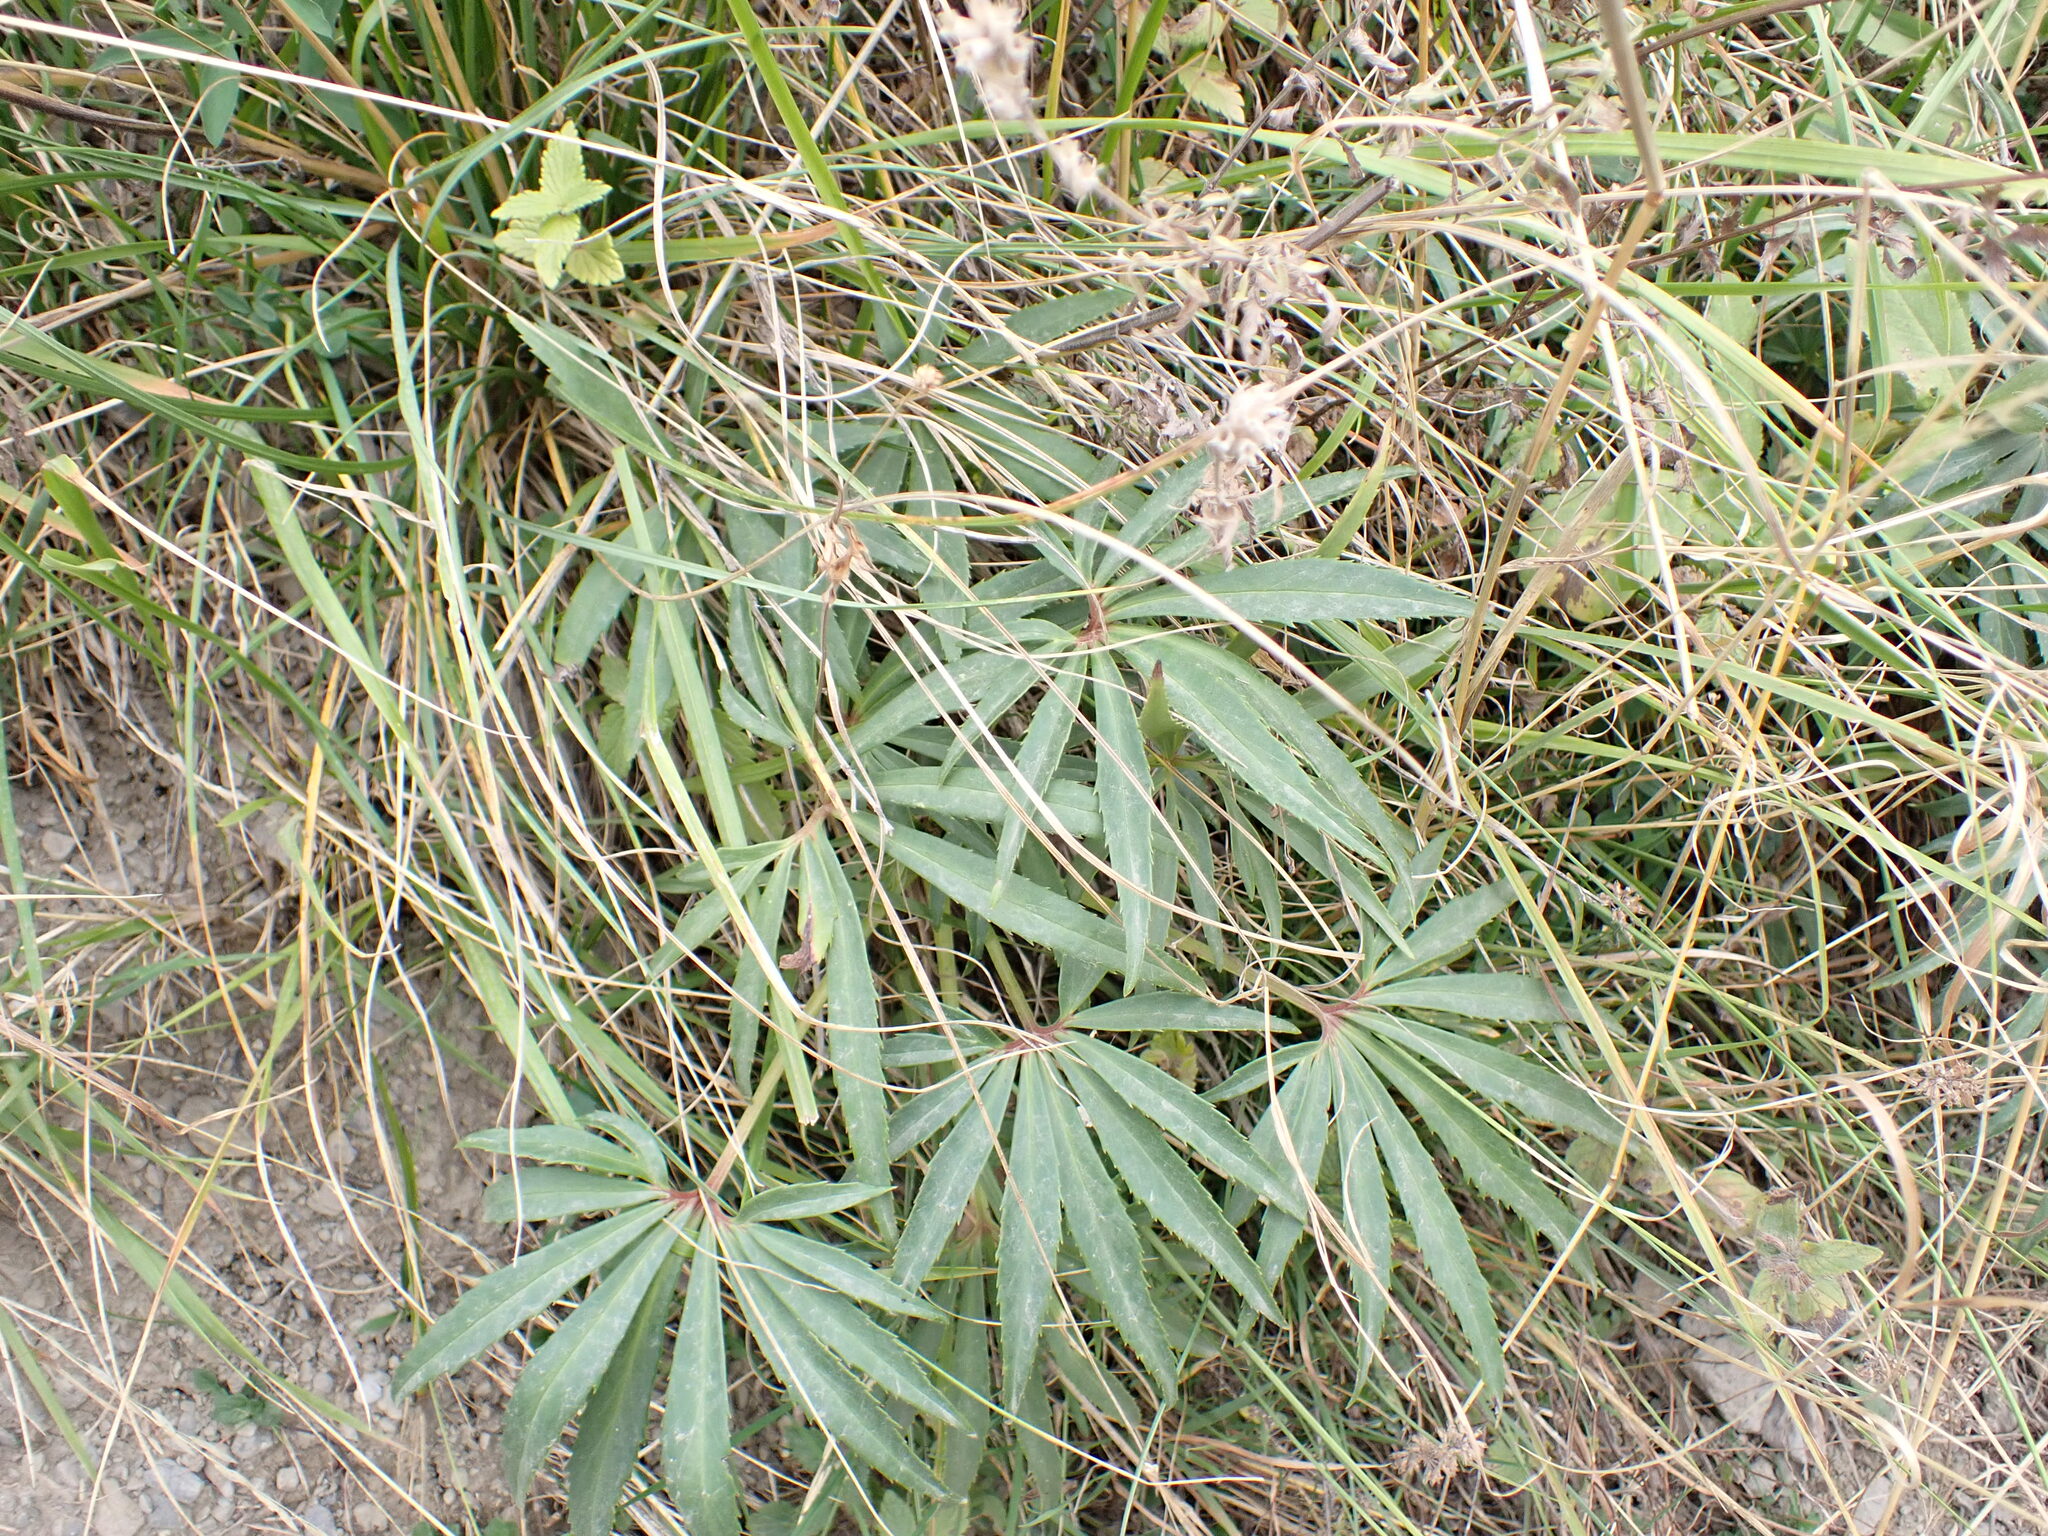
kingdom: Plantae
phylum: Tracheophyta
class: Magnoliopsida
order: Ranunculales
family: Ranunculaceae
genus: Helleborus
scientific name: Helleborus foetidus
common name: Stinking hellebore
